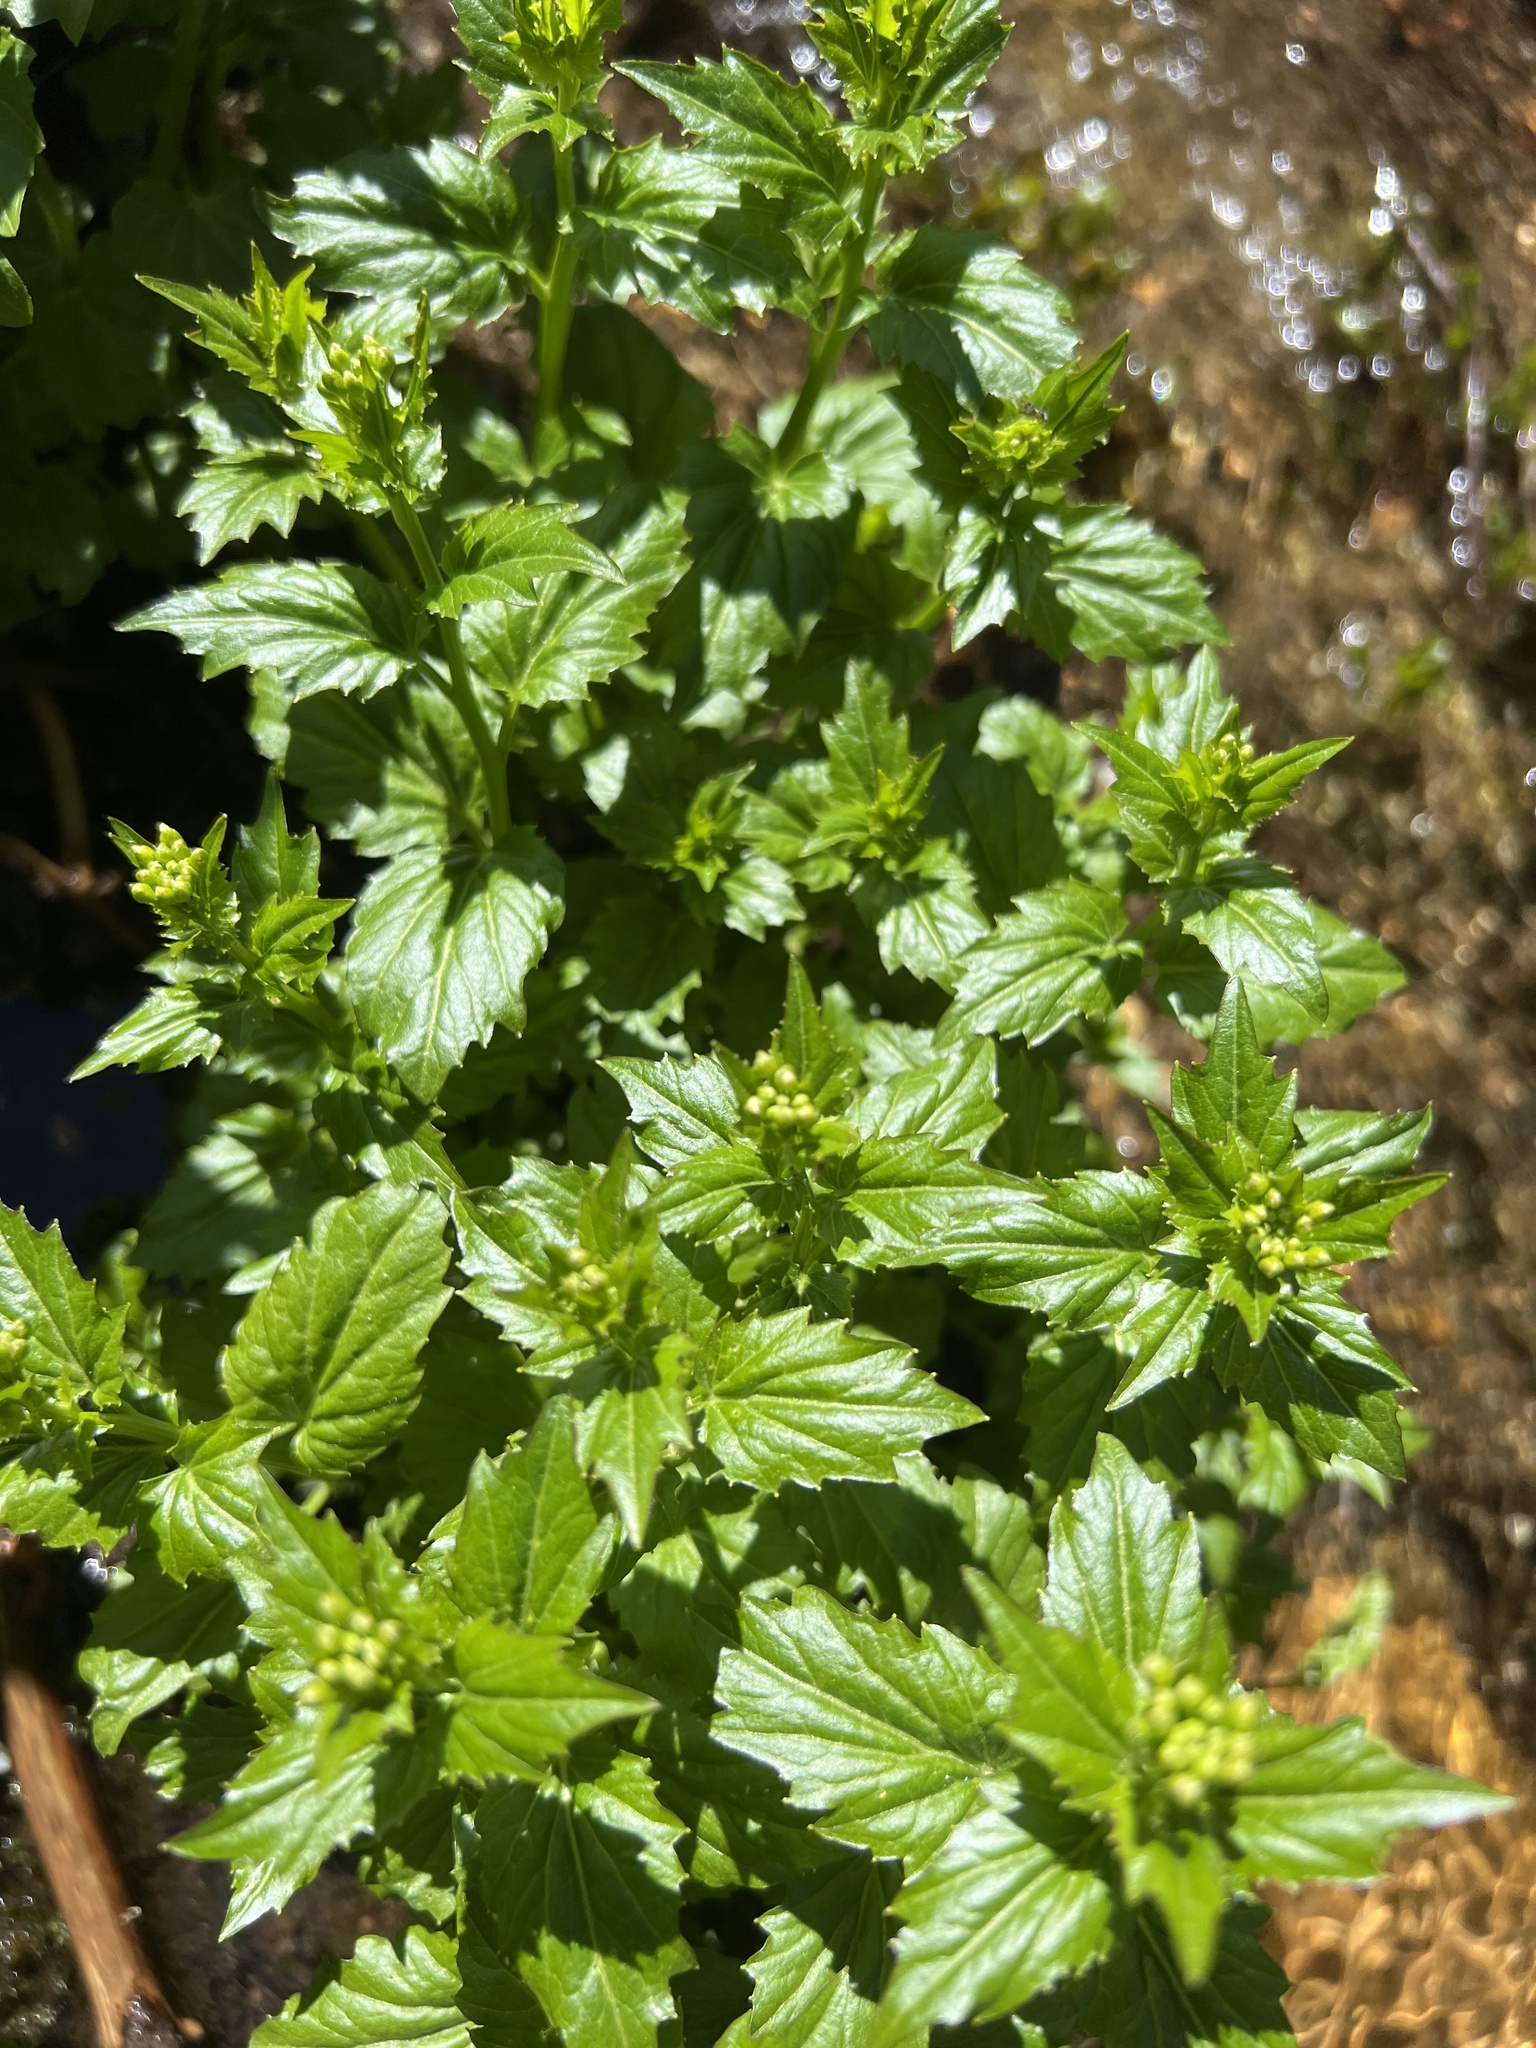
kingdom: Plantae
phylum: Tracheophyta
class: Magnoliopsida
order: Brassicales
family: Brassicaceae
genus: Cardamine
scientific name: Cardamine cordifolia
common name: Heart-leaf bittercress
